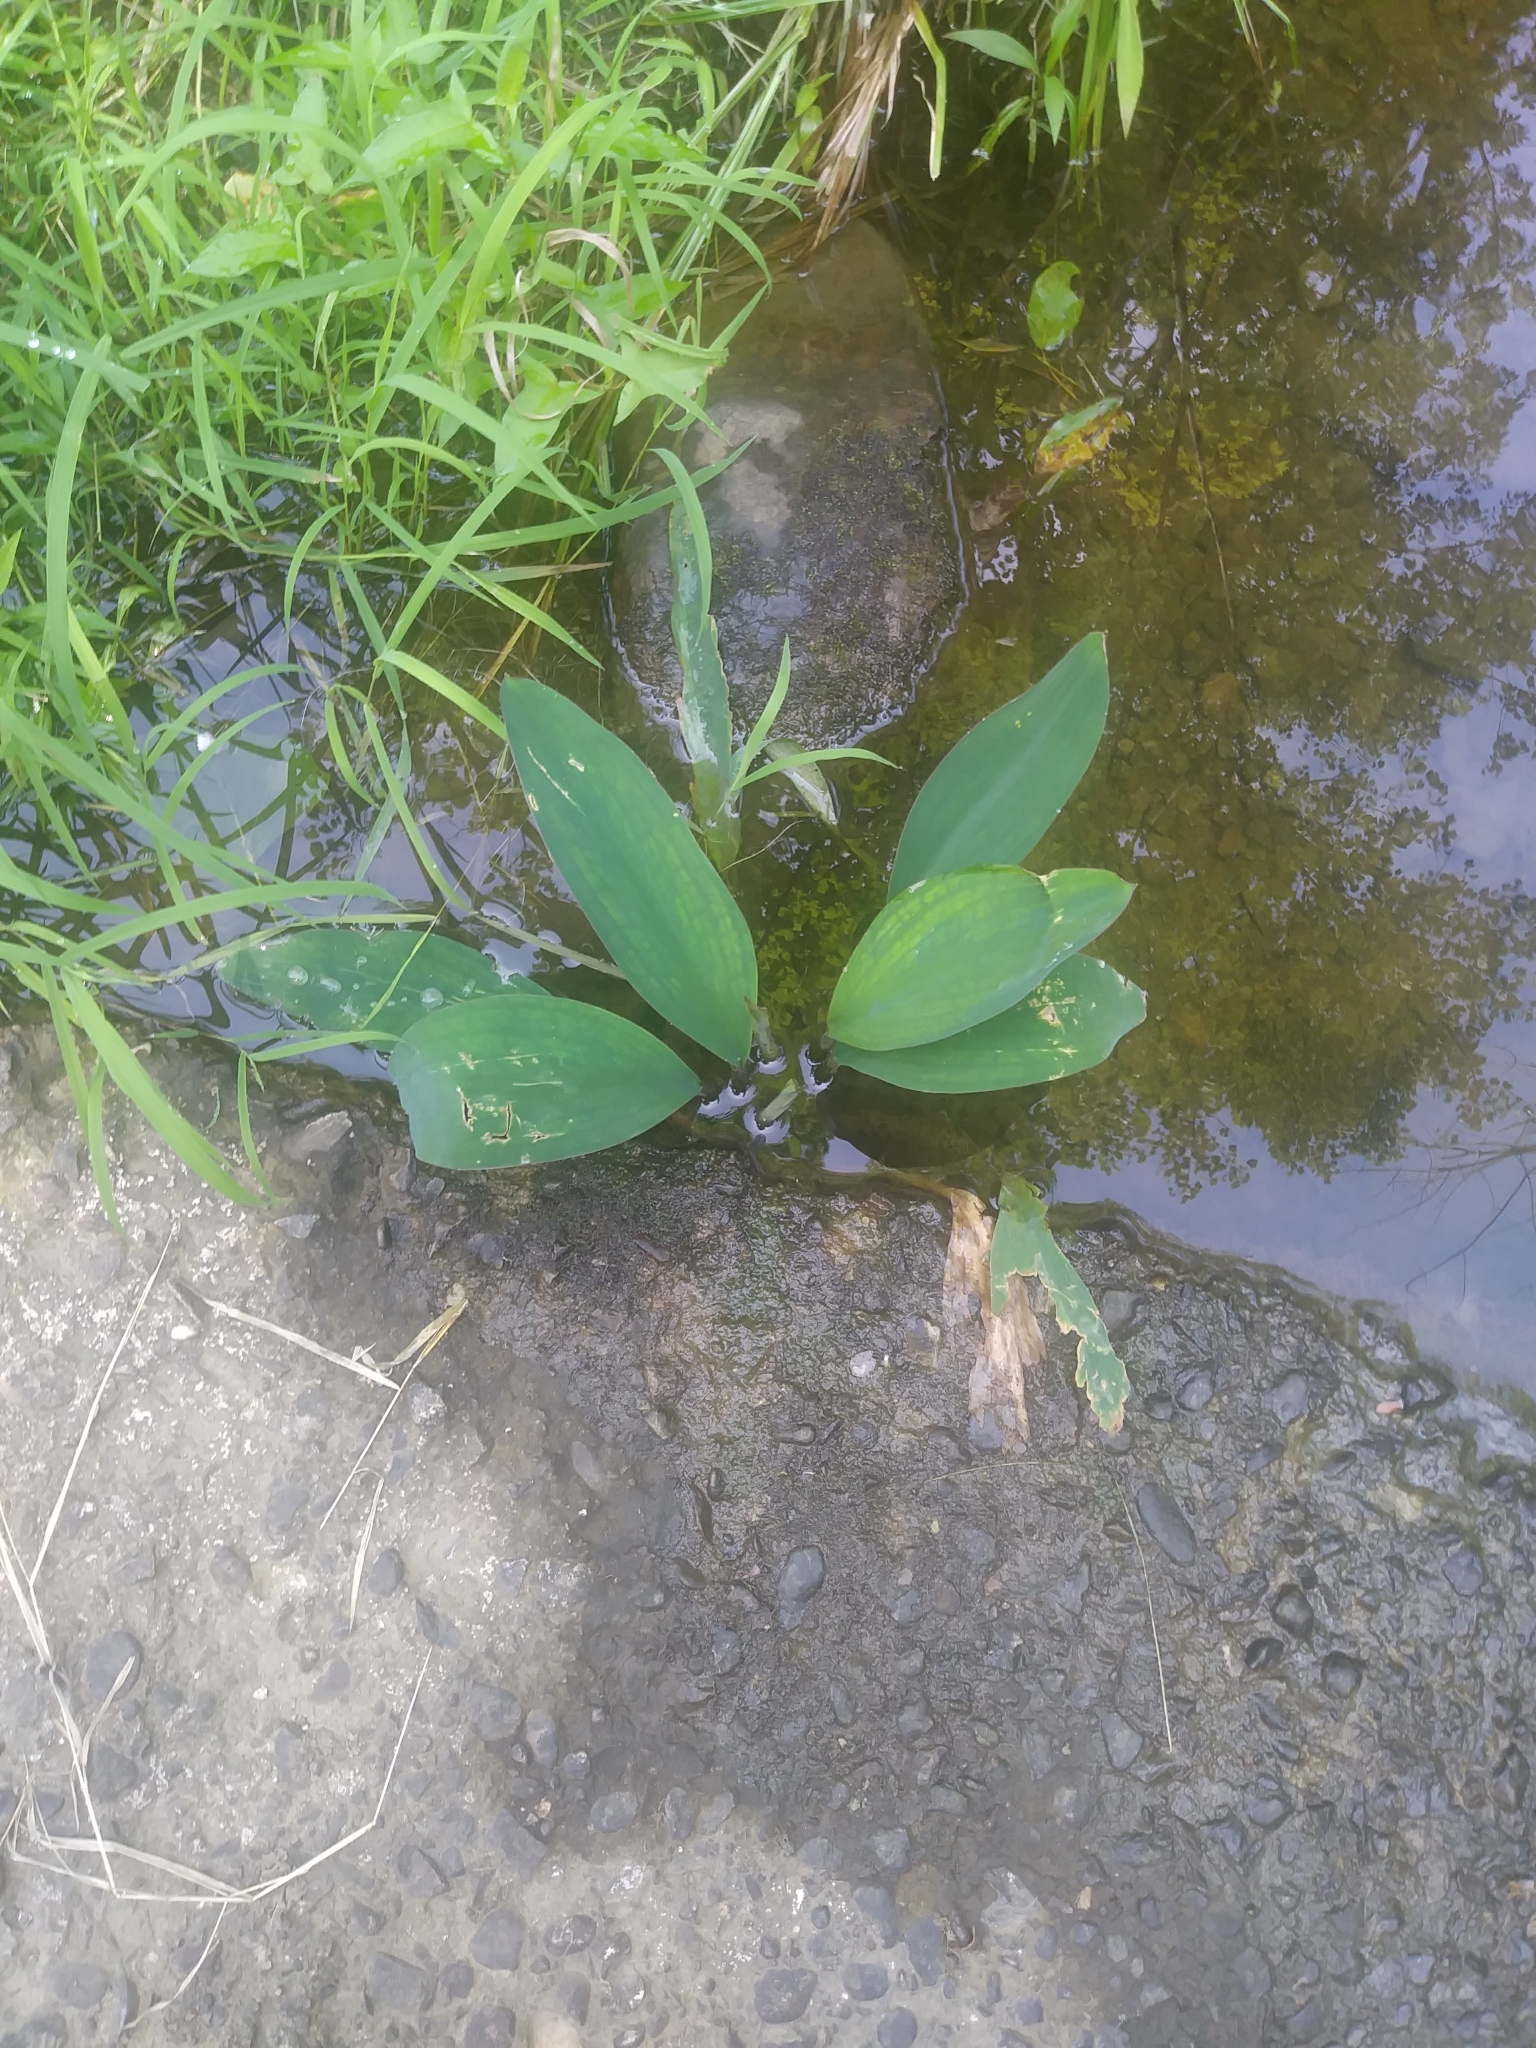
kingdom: Plantae
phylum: Tracheophyta
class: Liliopsida
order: Alismatales
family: Araceae
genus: Orontium
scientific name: Orontium aquaticum
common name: Golden-club
